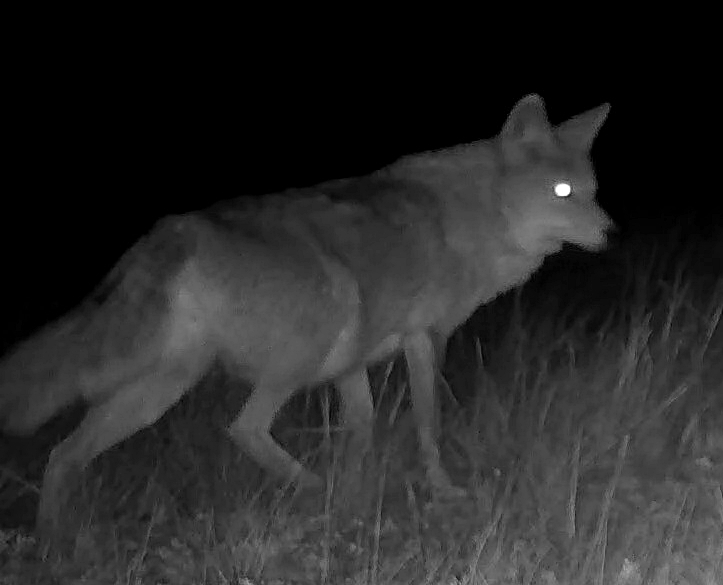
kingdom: Animalia
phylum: Chordata
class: Mammalia
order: Carnivora
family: Canidae
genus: Canis
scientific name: Canis latrans
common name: Coyote
